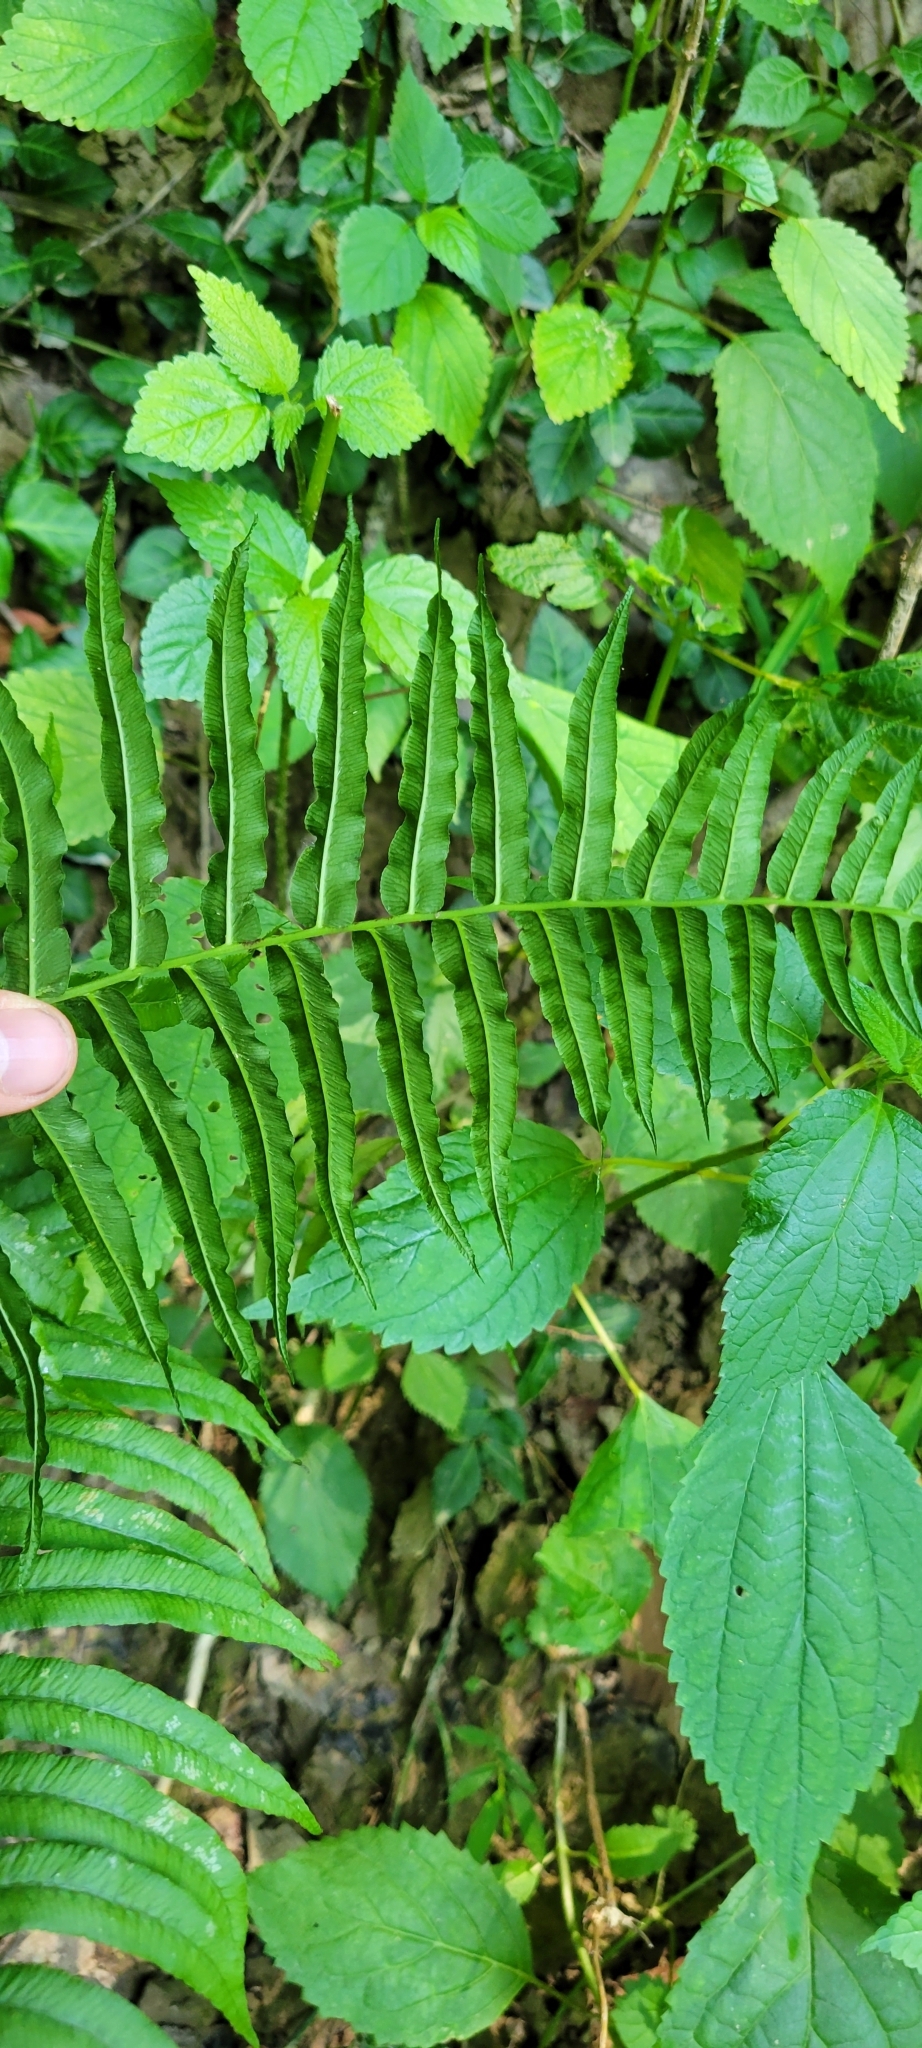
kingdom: Plantae
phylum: Tracheophyta
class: Polypodiopsida
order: Polypodiales
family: Diplaziopsidaceae
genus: Homalosorus
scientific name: Homalosorus pycnocarpos
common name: Glade fern
